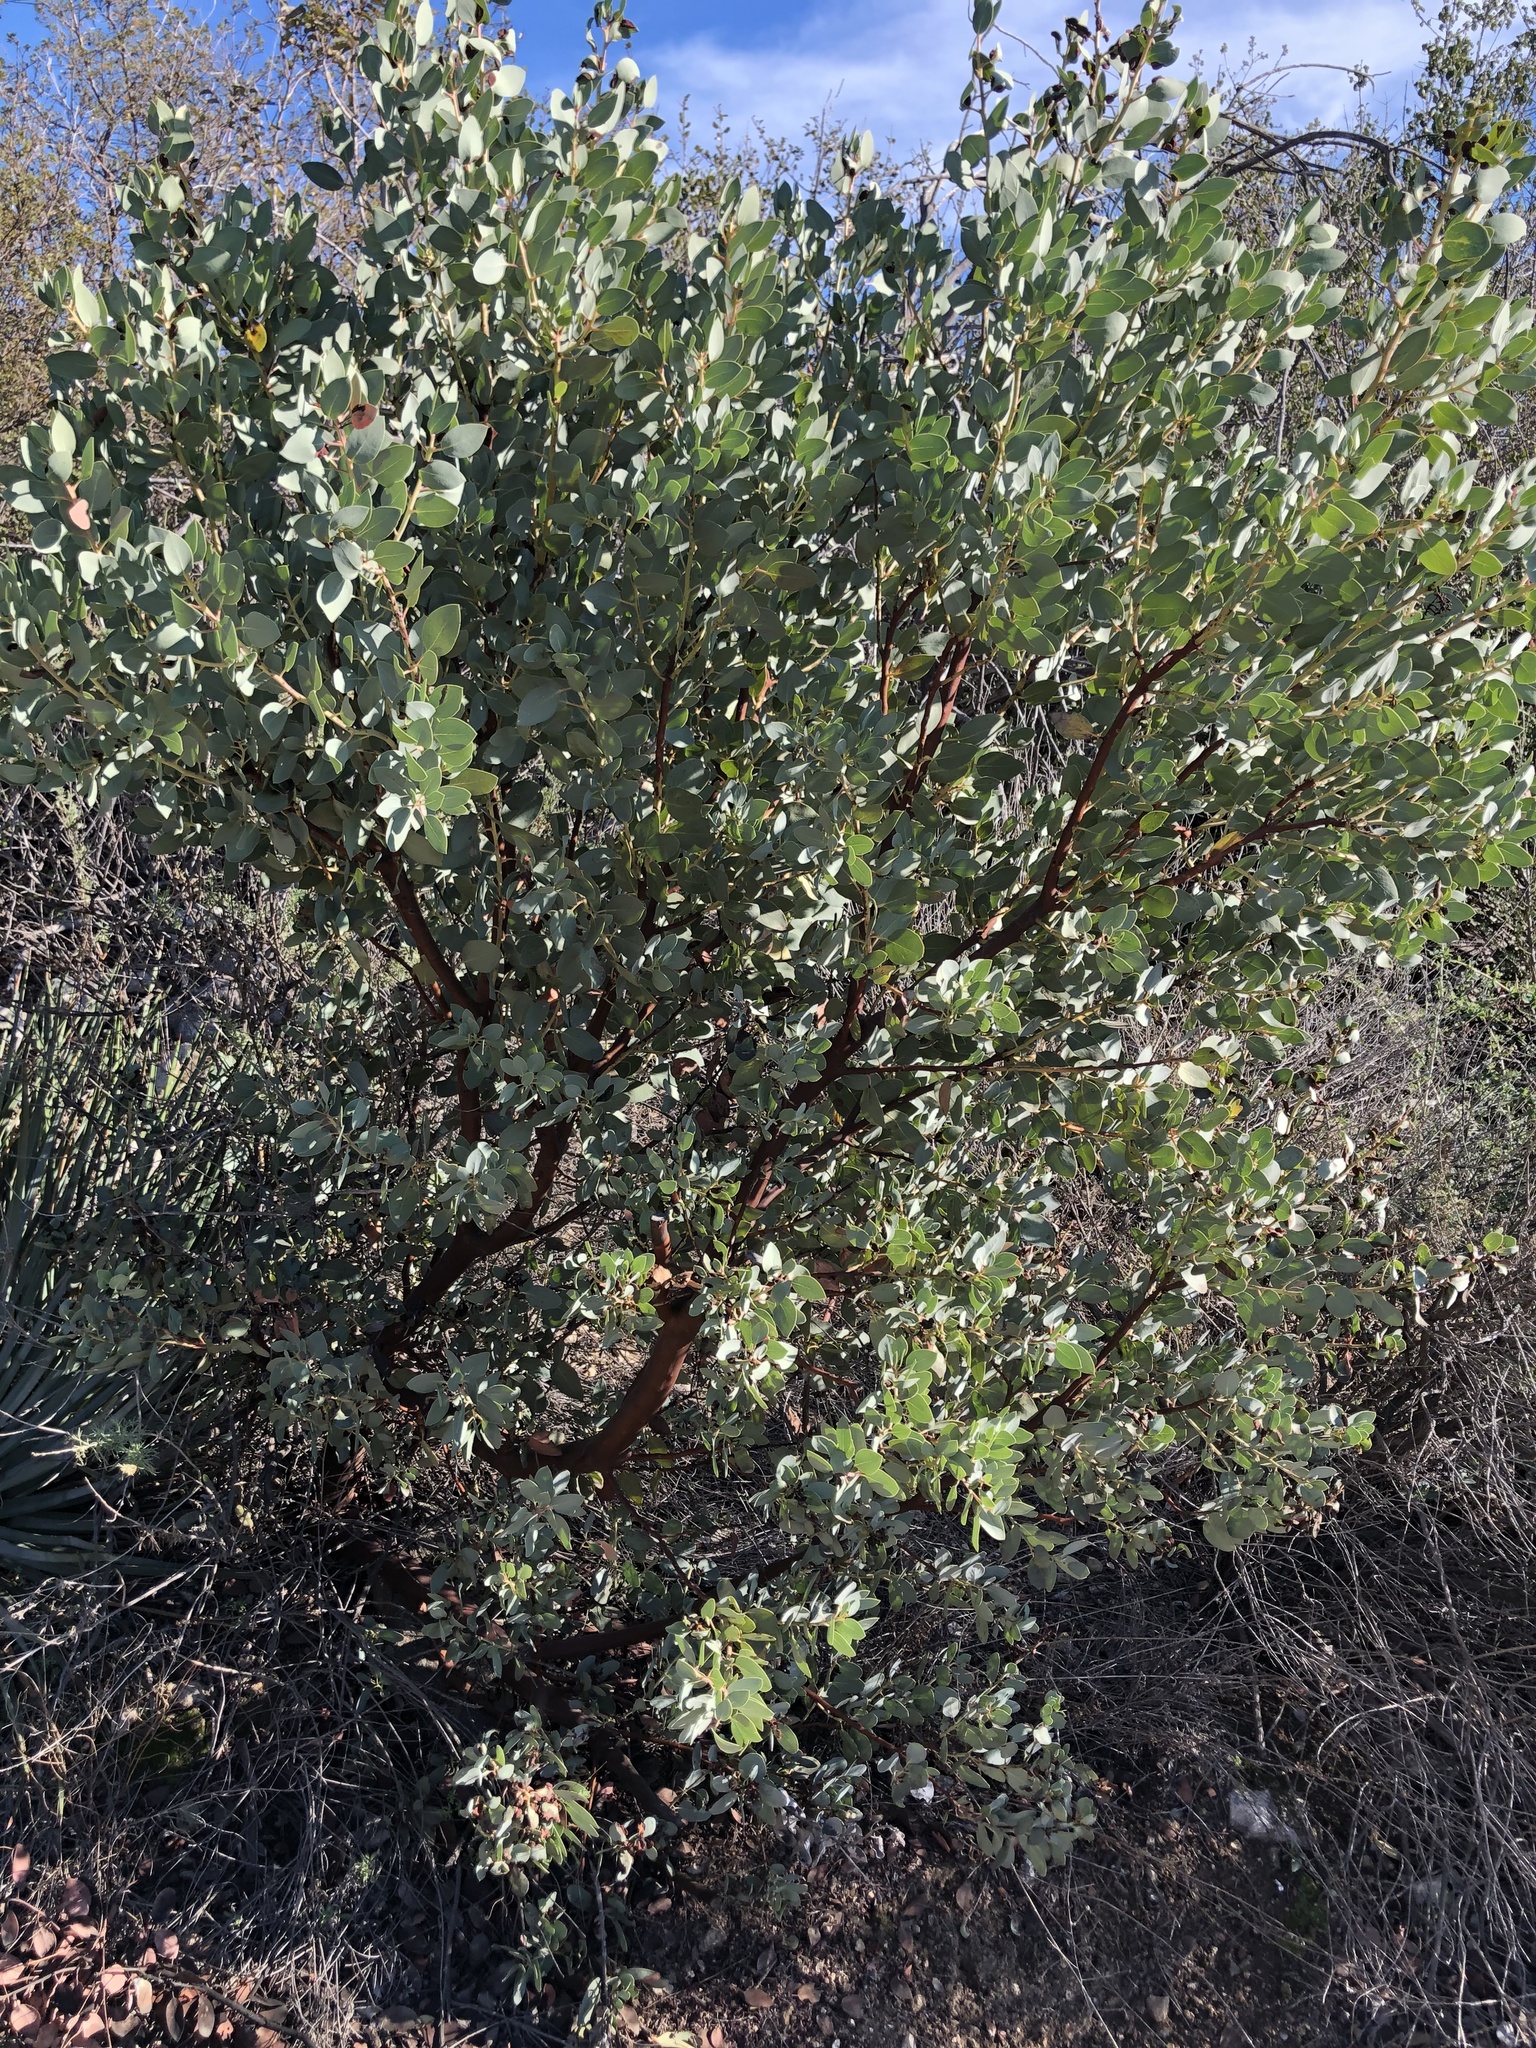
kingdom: Plantae
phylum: Tracheophyta
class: Magnoliopsida
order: Ericales
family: Ericaceae
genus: Arctostaphylos
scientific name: Arctostaphylos glauca
